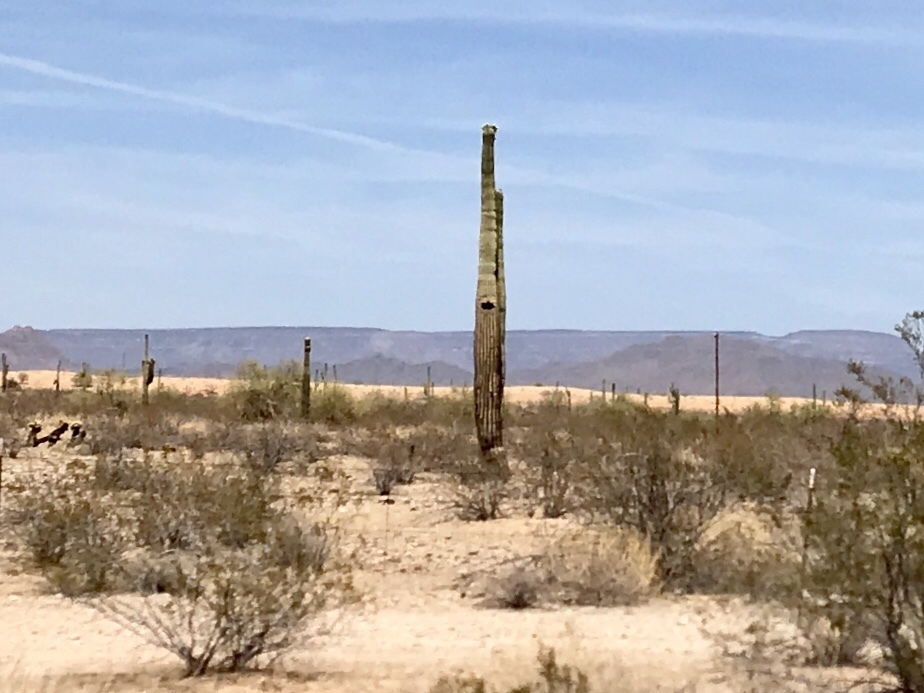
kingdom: Plantae
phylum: Tracheophyta
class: Magnoliopsida
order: Caryophyllales
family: Cactaceae
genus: Carnegiea
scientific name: Carnegiea gigantea
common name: Saguaro
